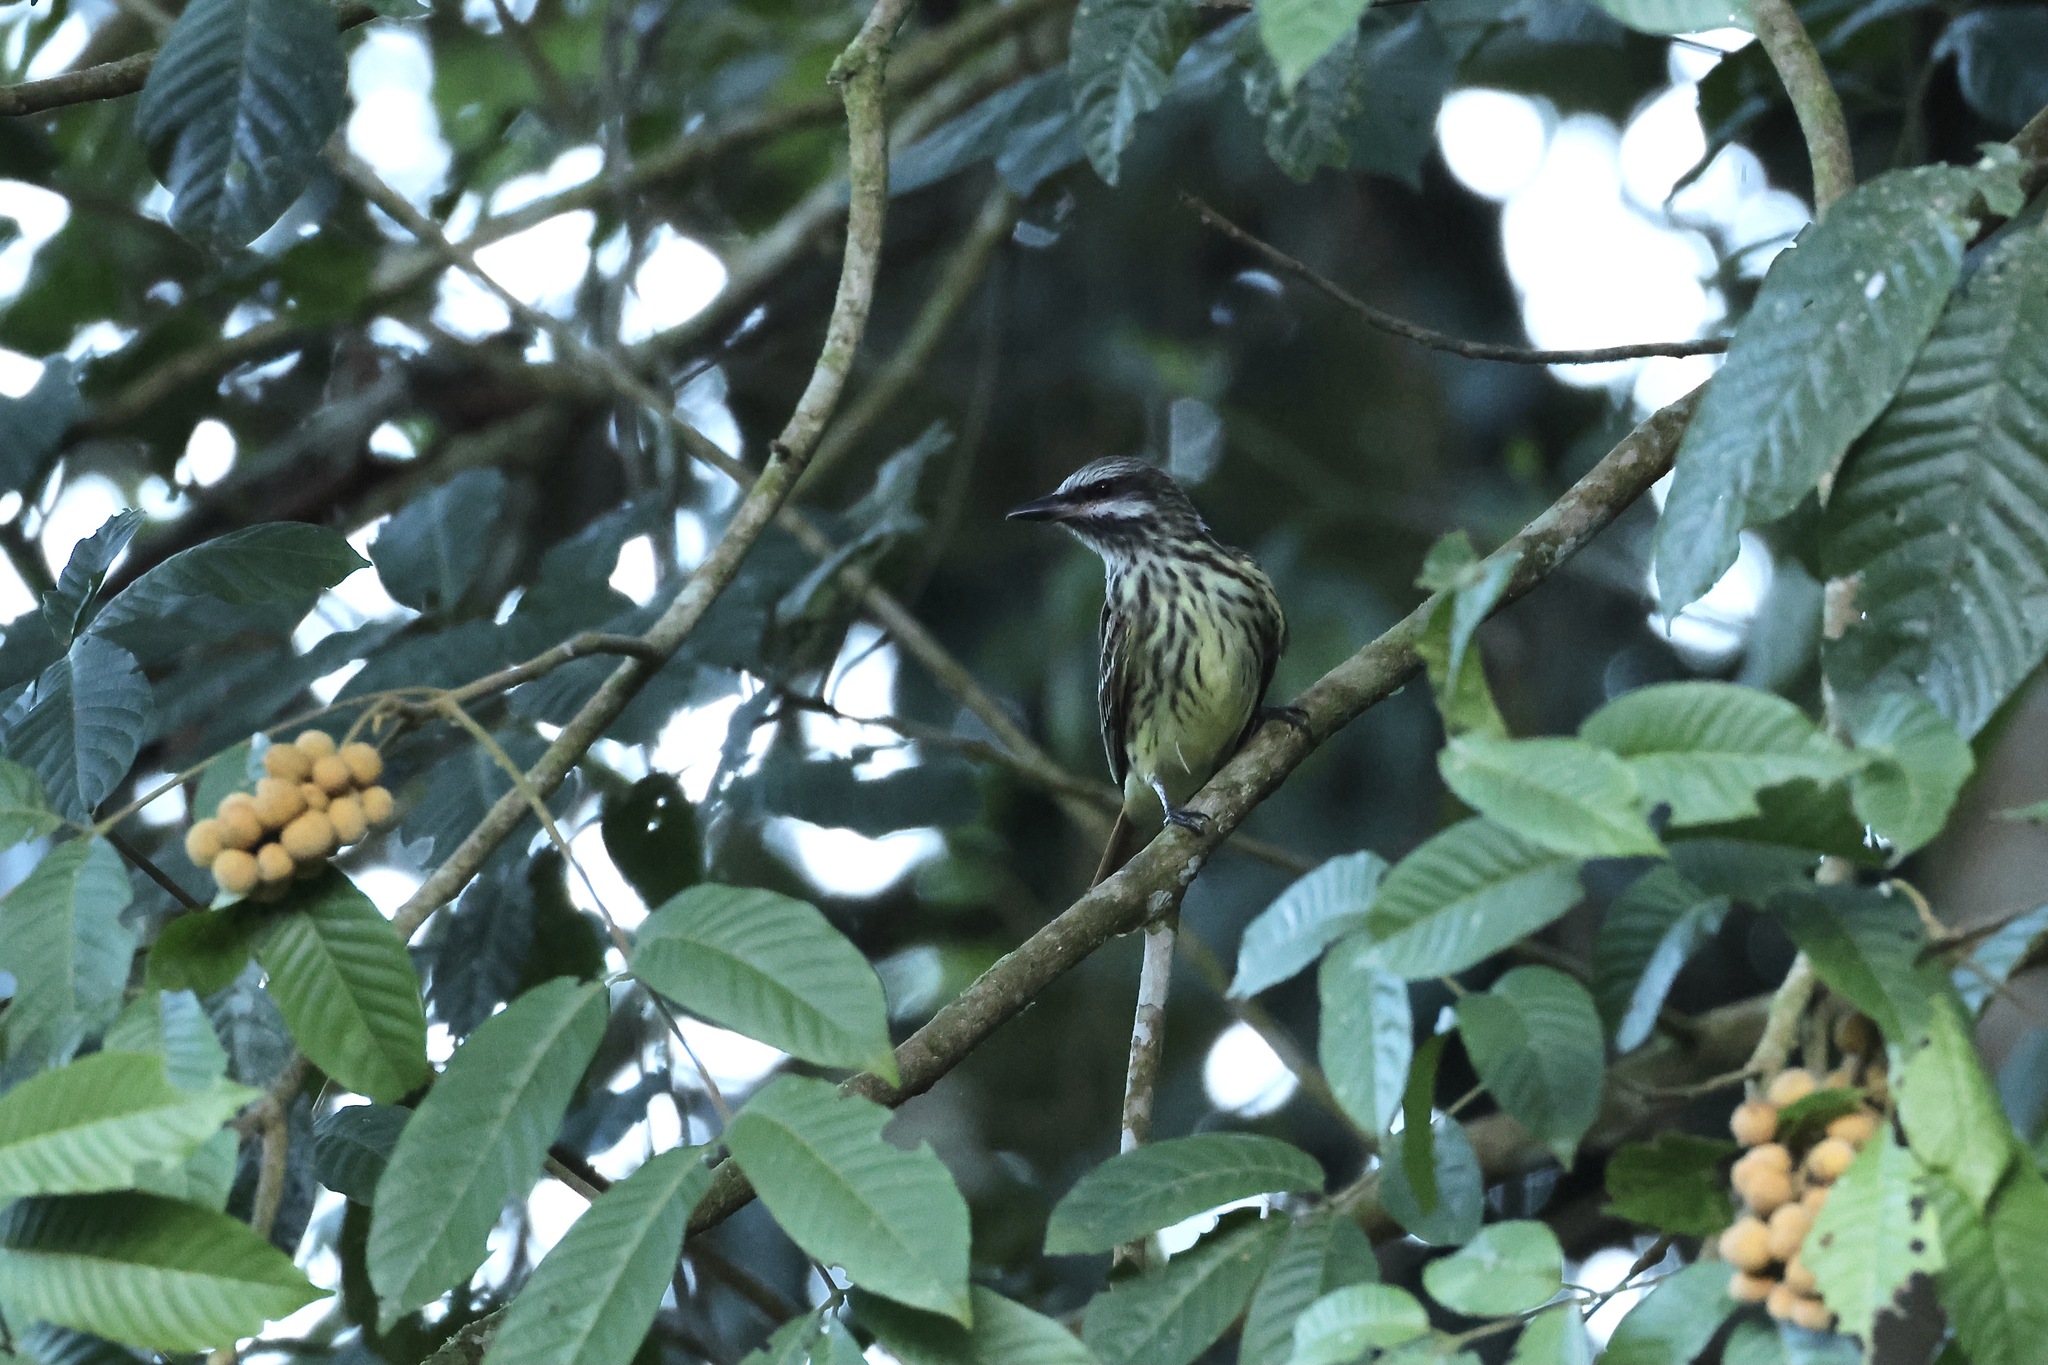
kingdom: Animalia
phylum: Chordata
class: Aves
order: Passeriformes
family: Tyrannidae
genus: Myiodynastes
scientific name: Myiodynastes luteiventris
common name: Sulphur-bellied flycatcher
